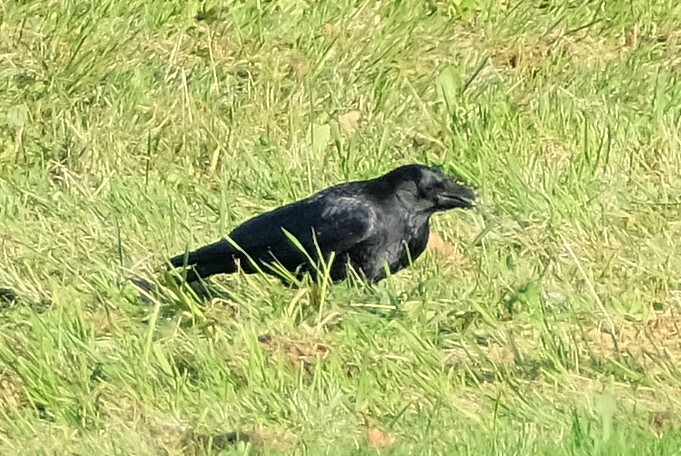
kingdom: Animalia
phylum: Chordata
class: Aves
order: Passeriformes
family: Corvidae
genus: Corvus
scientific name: Corvus corone
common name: Carrion crow
